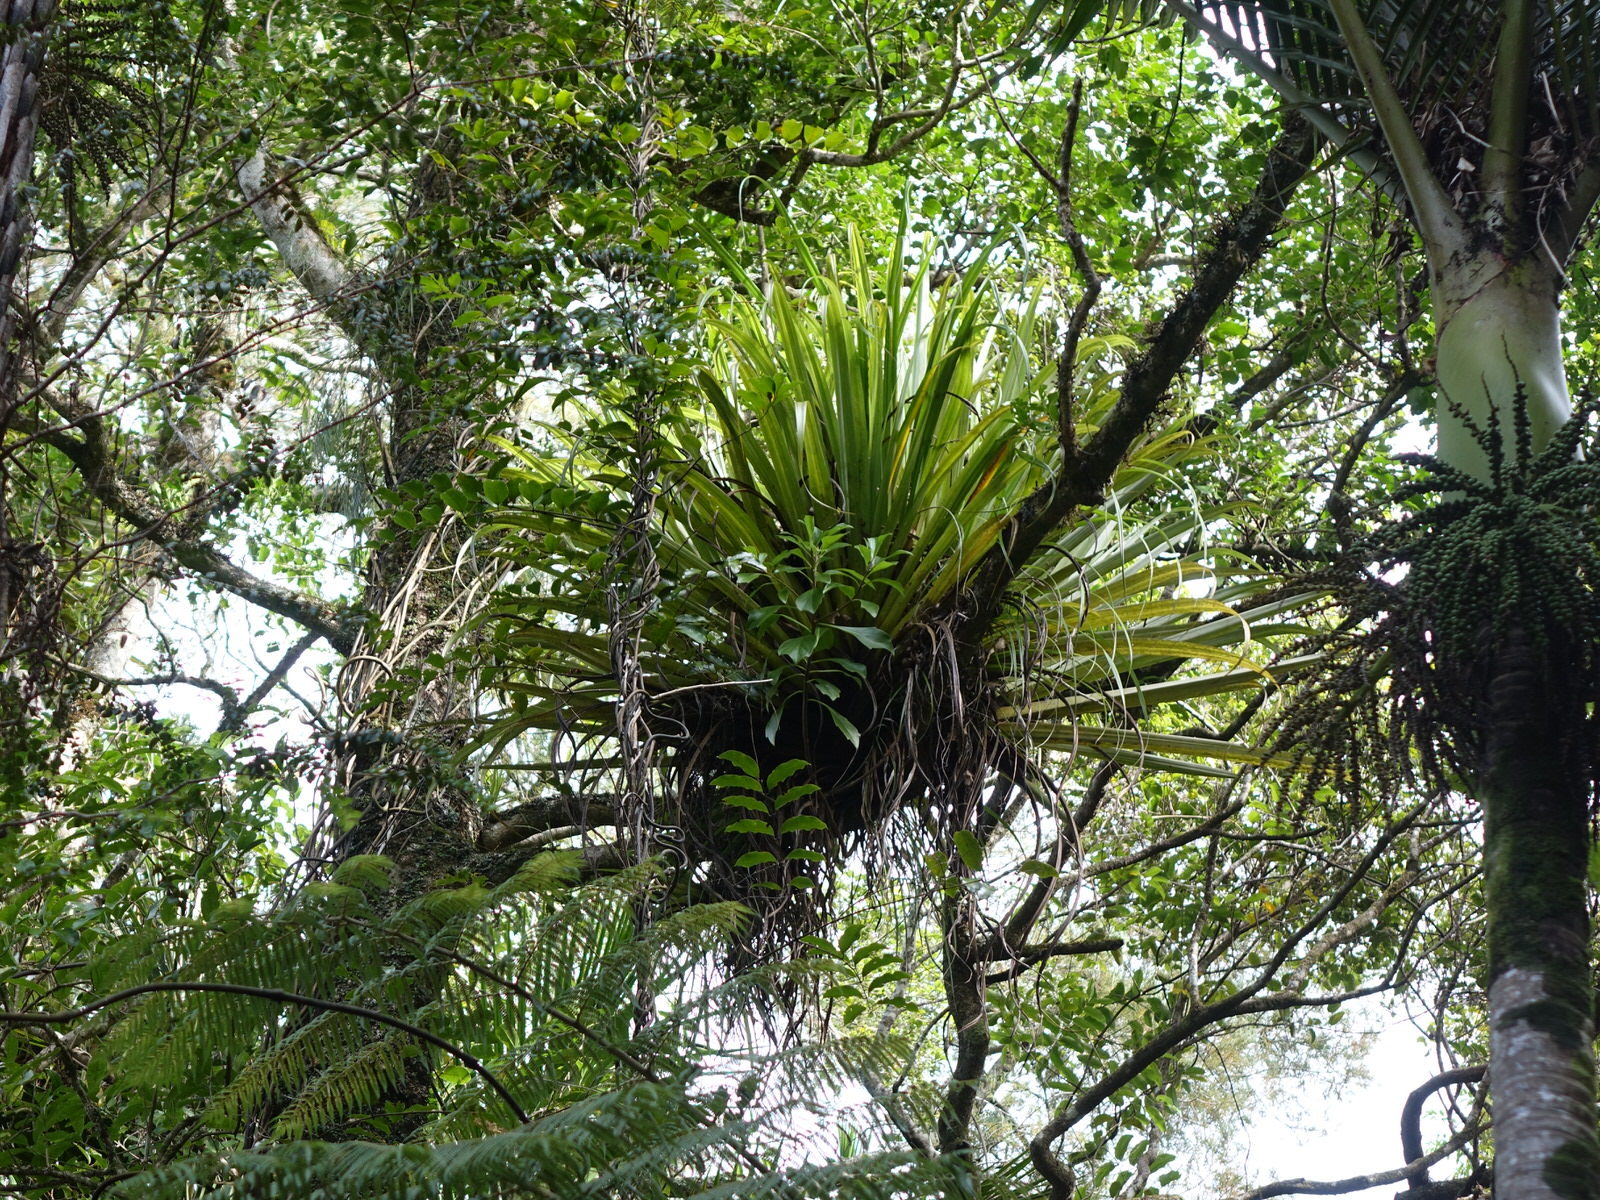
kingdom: Plantae
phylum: Tracheophyta
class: Magnoliopsida
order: Asterales
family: Asteraceae
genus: Brachyglottis
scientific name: Brachyglottis kirkii
